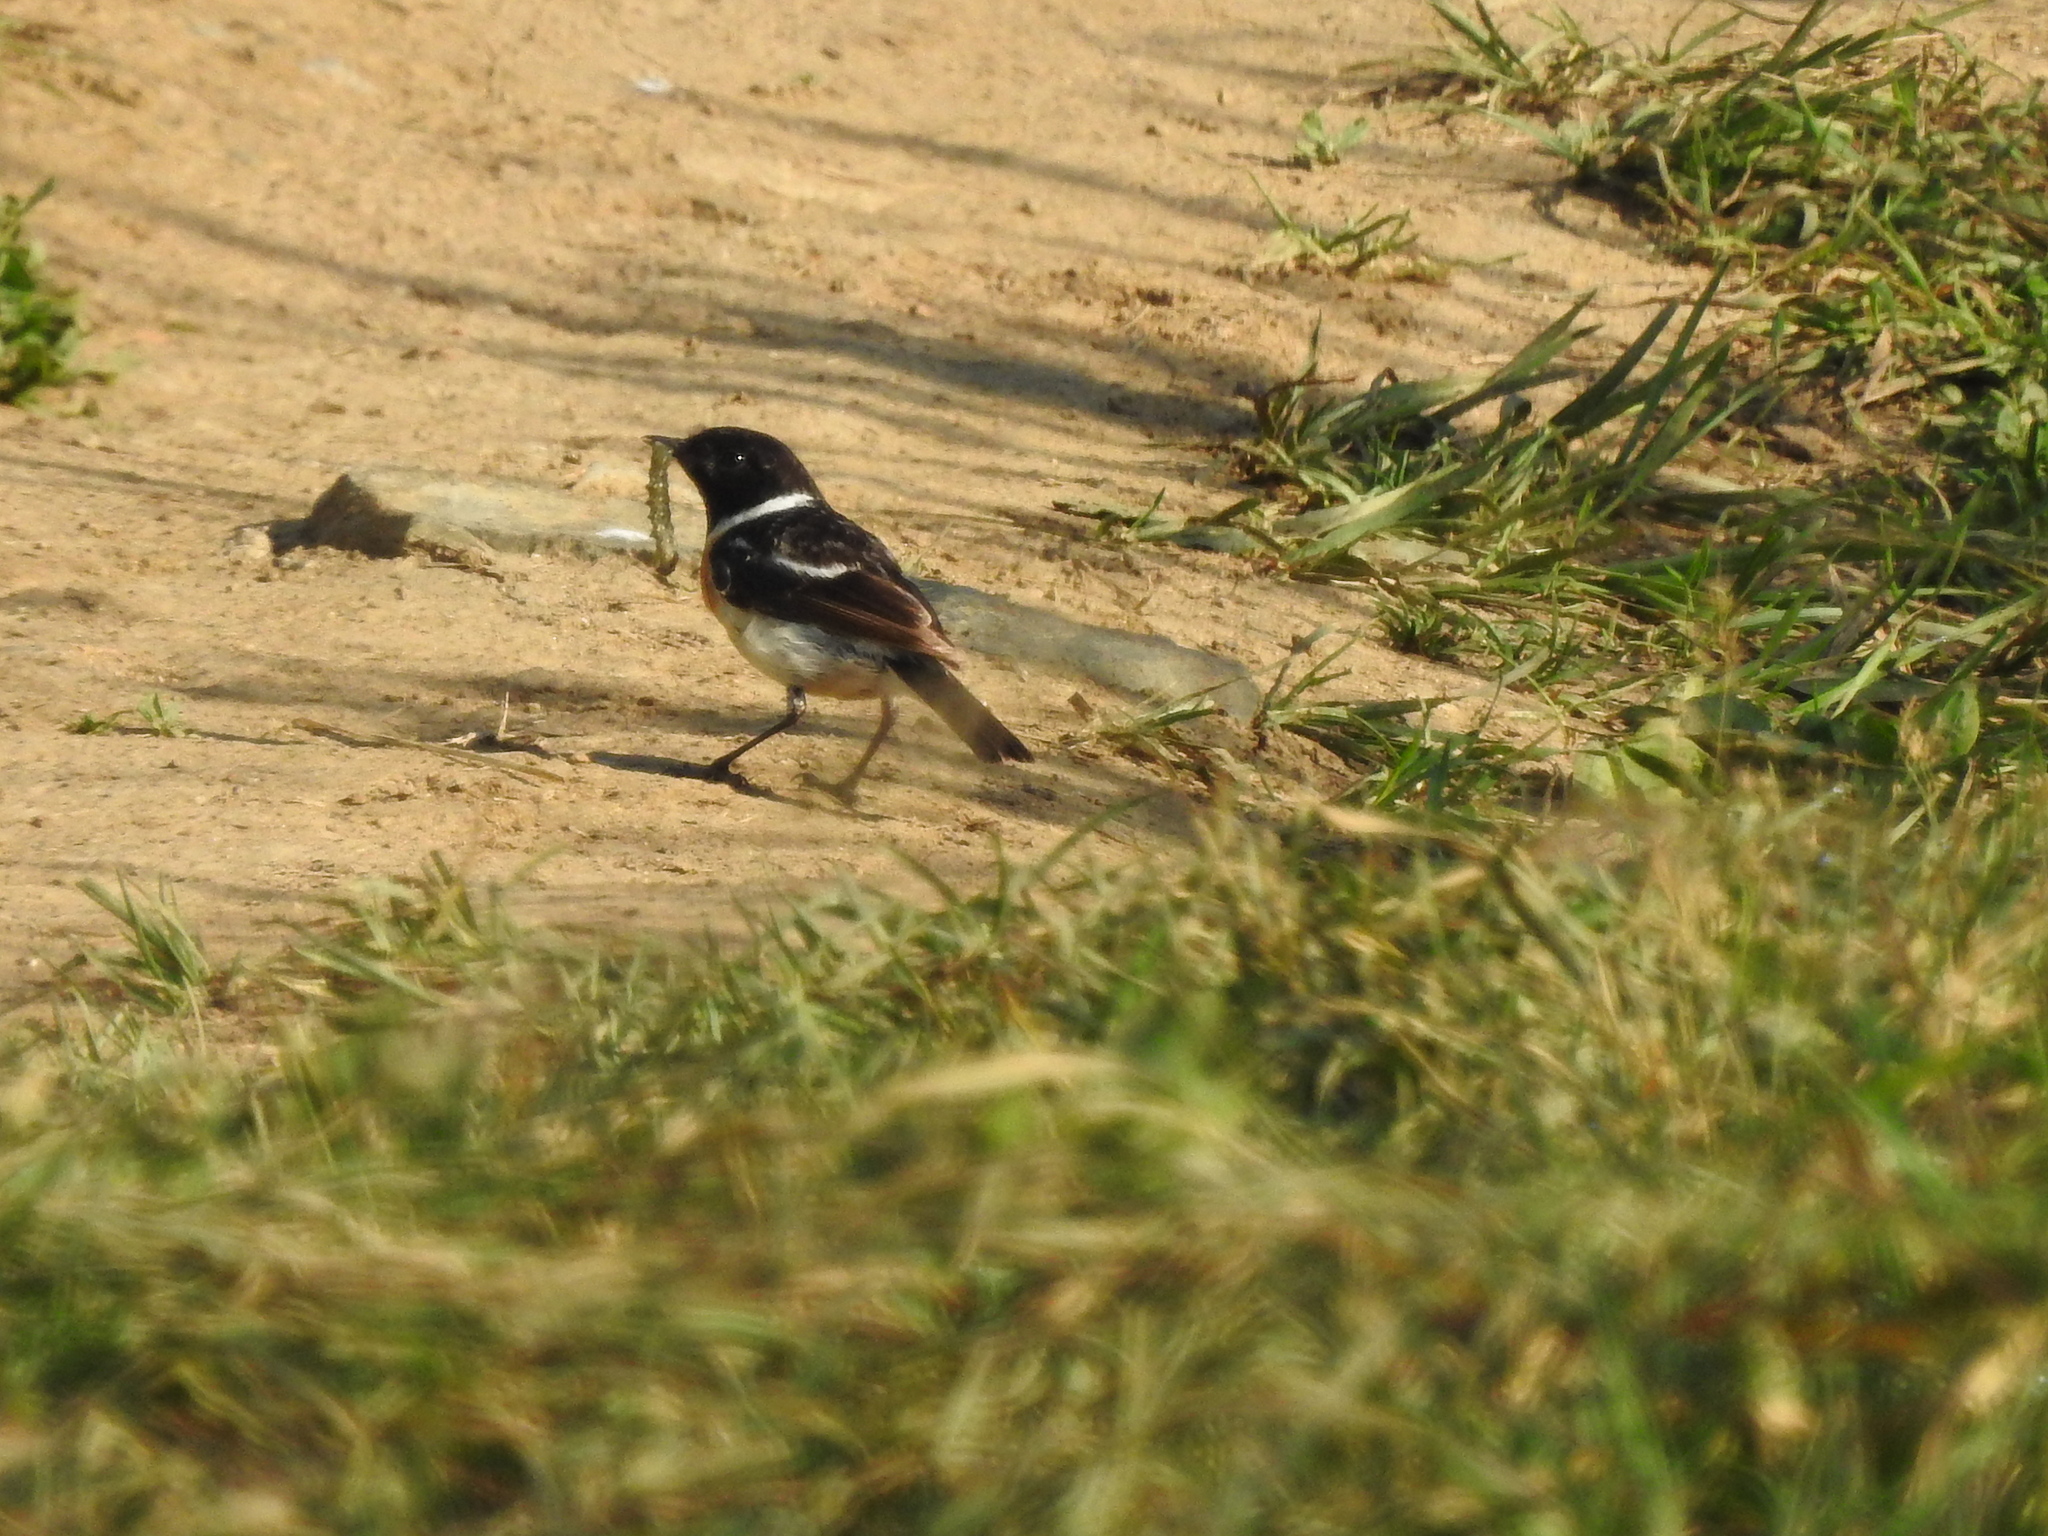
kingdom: Animalia
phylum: Chordata
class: Aves
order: Passeriformes
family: Muscicapidae
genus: Saxicola
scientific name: Saxicola maurus
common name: Siberian stonechat
